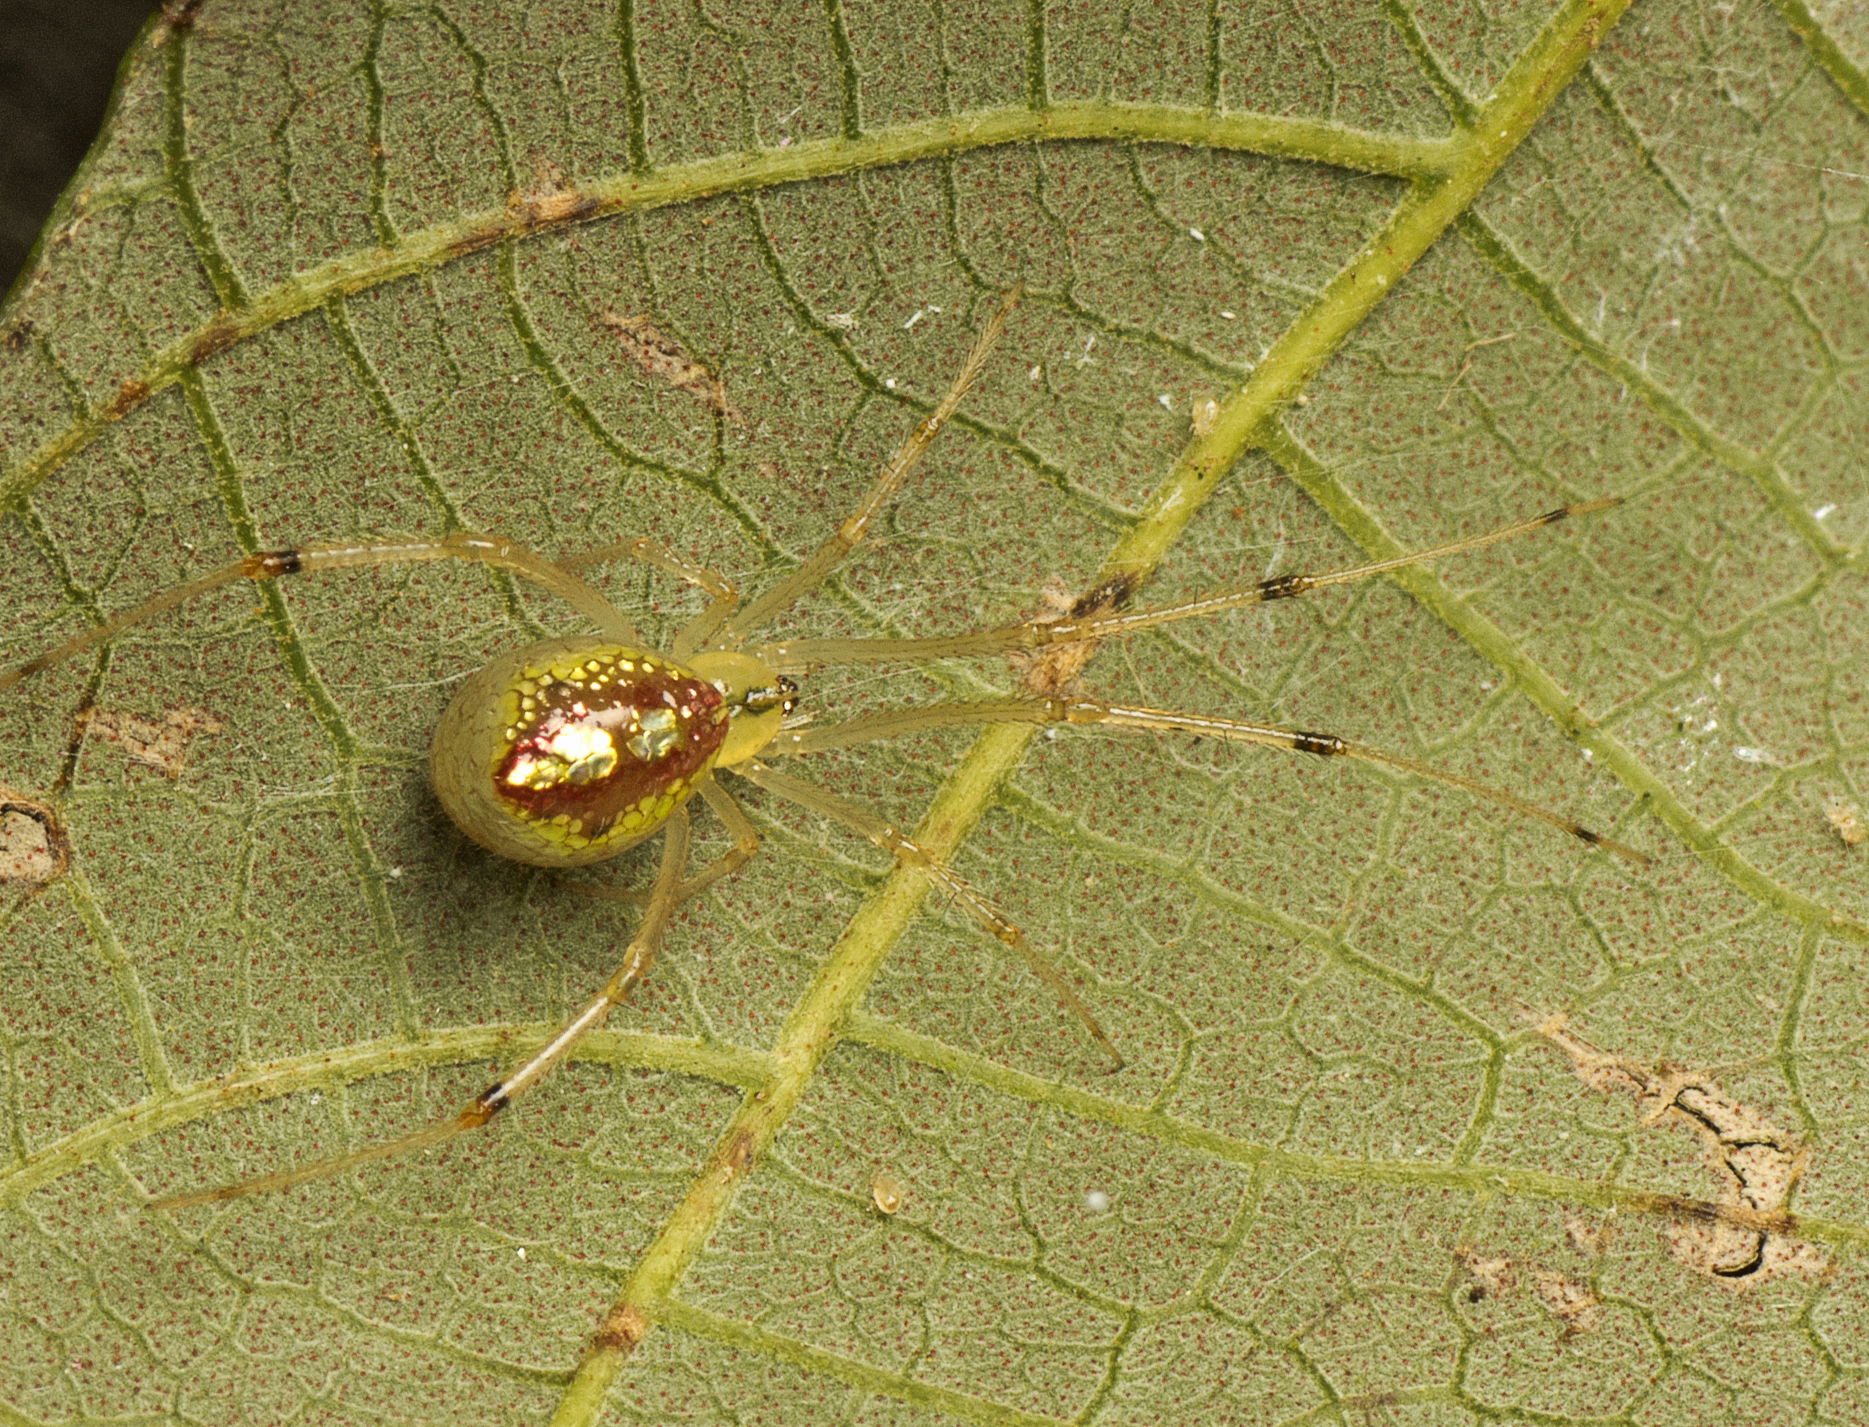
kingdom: Animalia
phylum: Arthropoda
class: Arachnida
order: Araneae
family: Theridiidae
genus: Thwaitesia
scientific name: Thwaitesia nigronodosa
